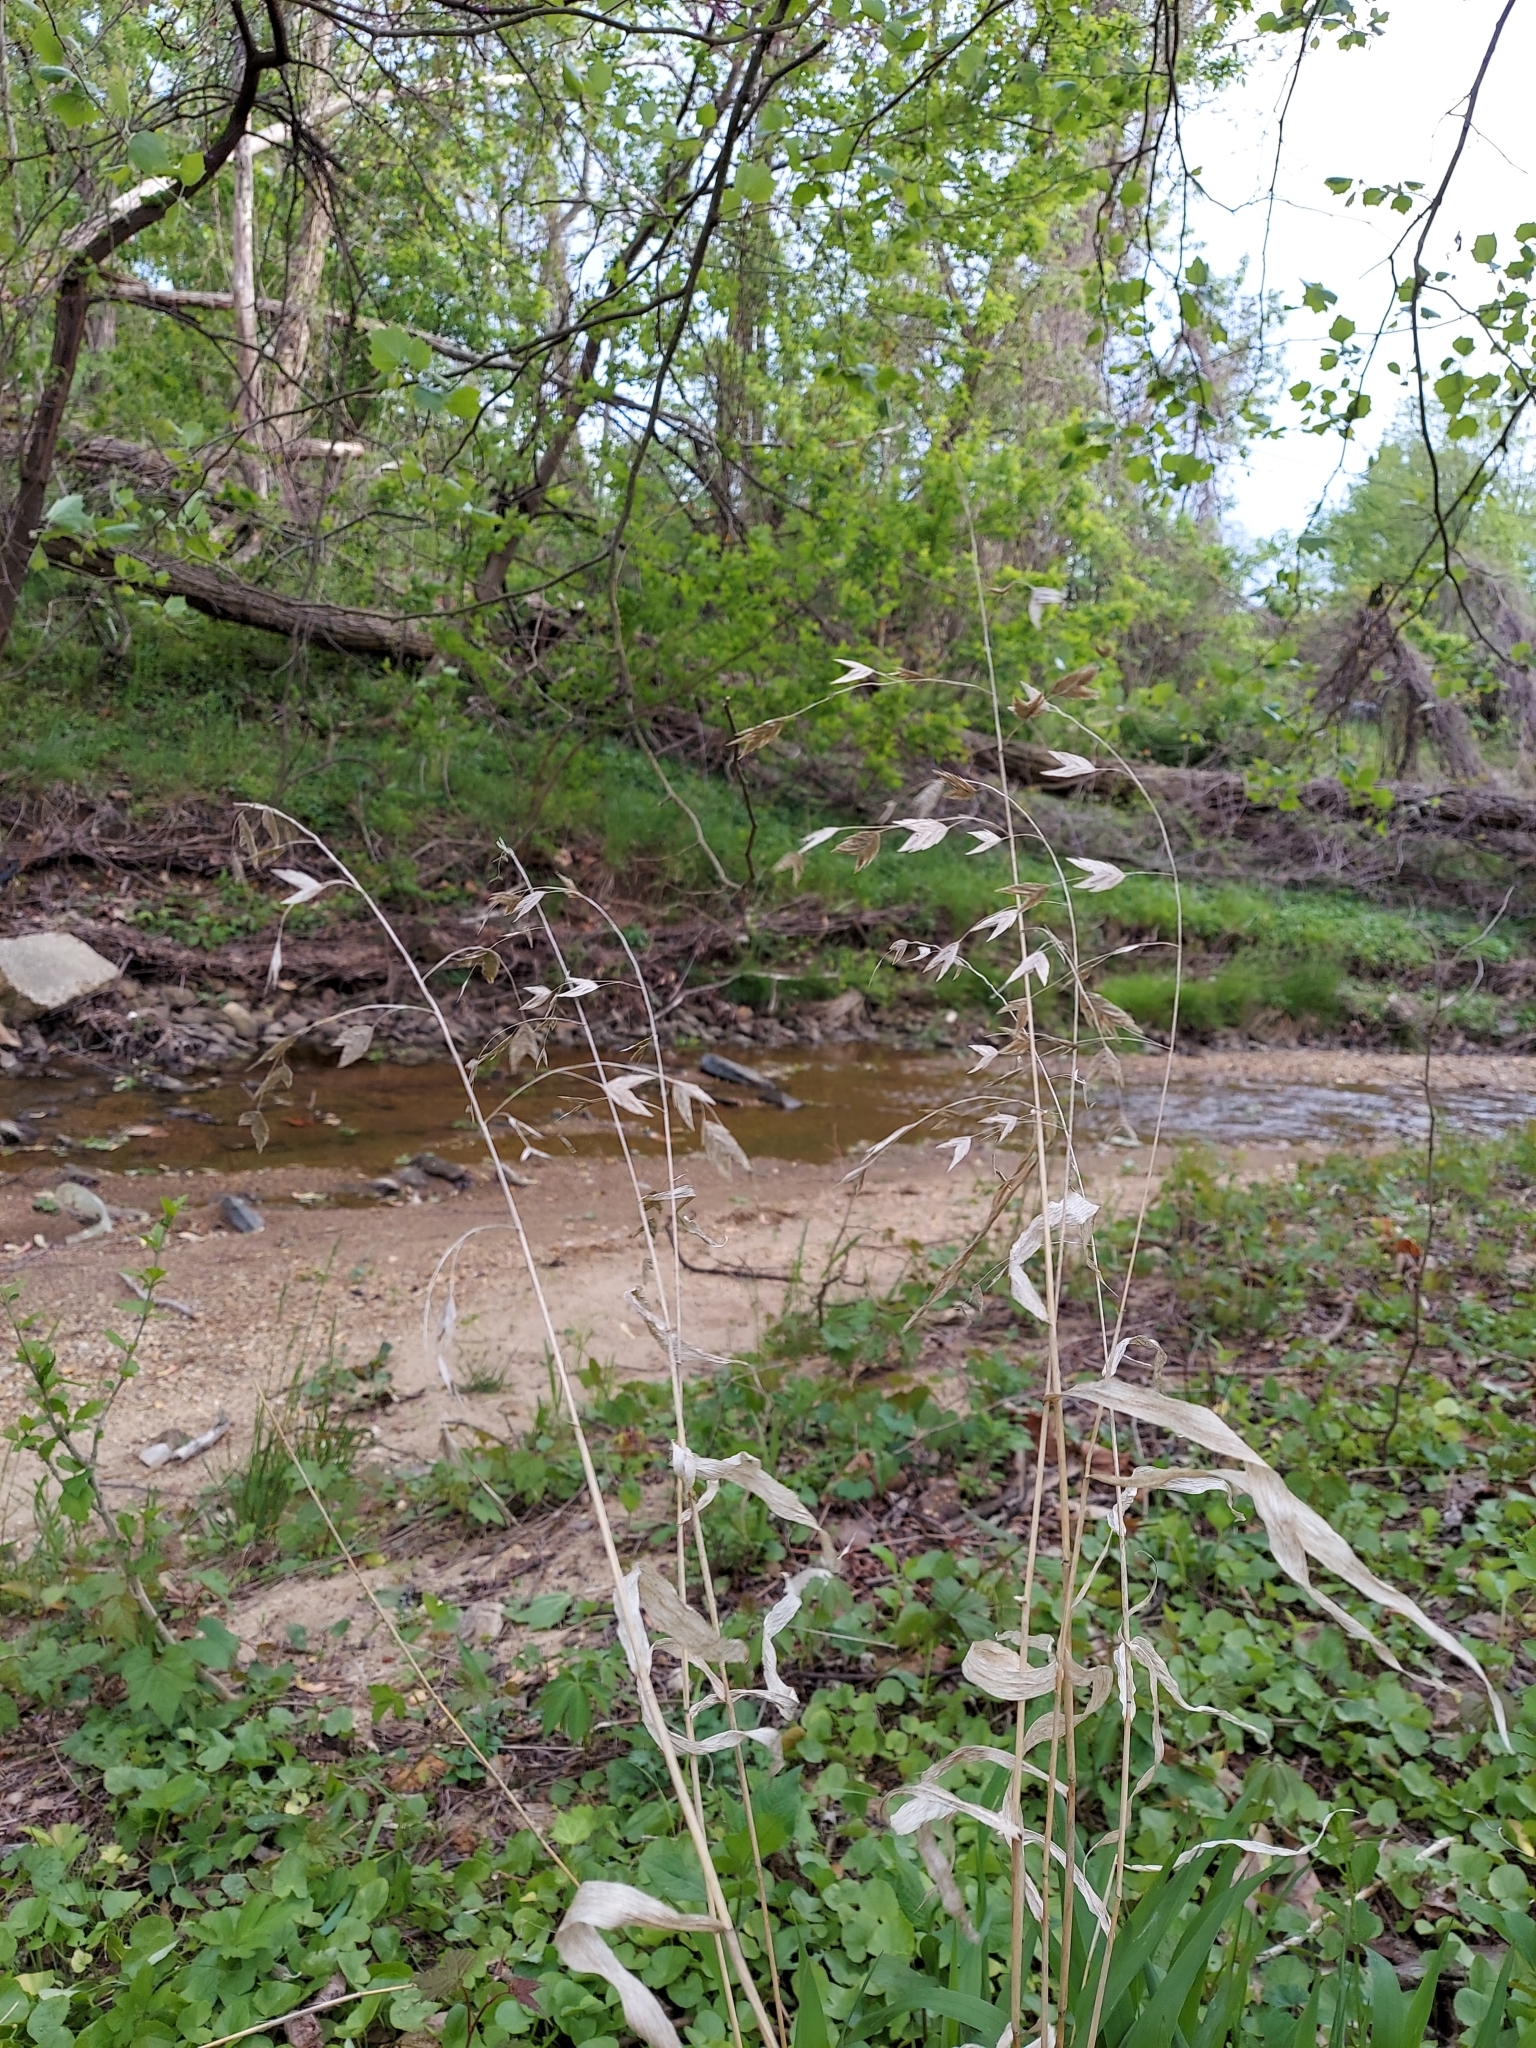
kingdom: Plantae
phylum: Tracheophyta
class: Liliopsida
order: Poales
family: Poaceae
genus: Chasmanthium
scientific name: Chasmanthium latifolium
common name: Broad-leaved chasmanthium
